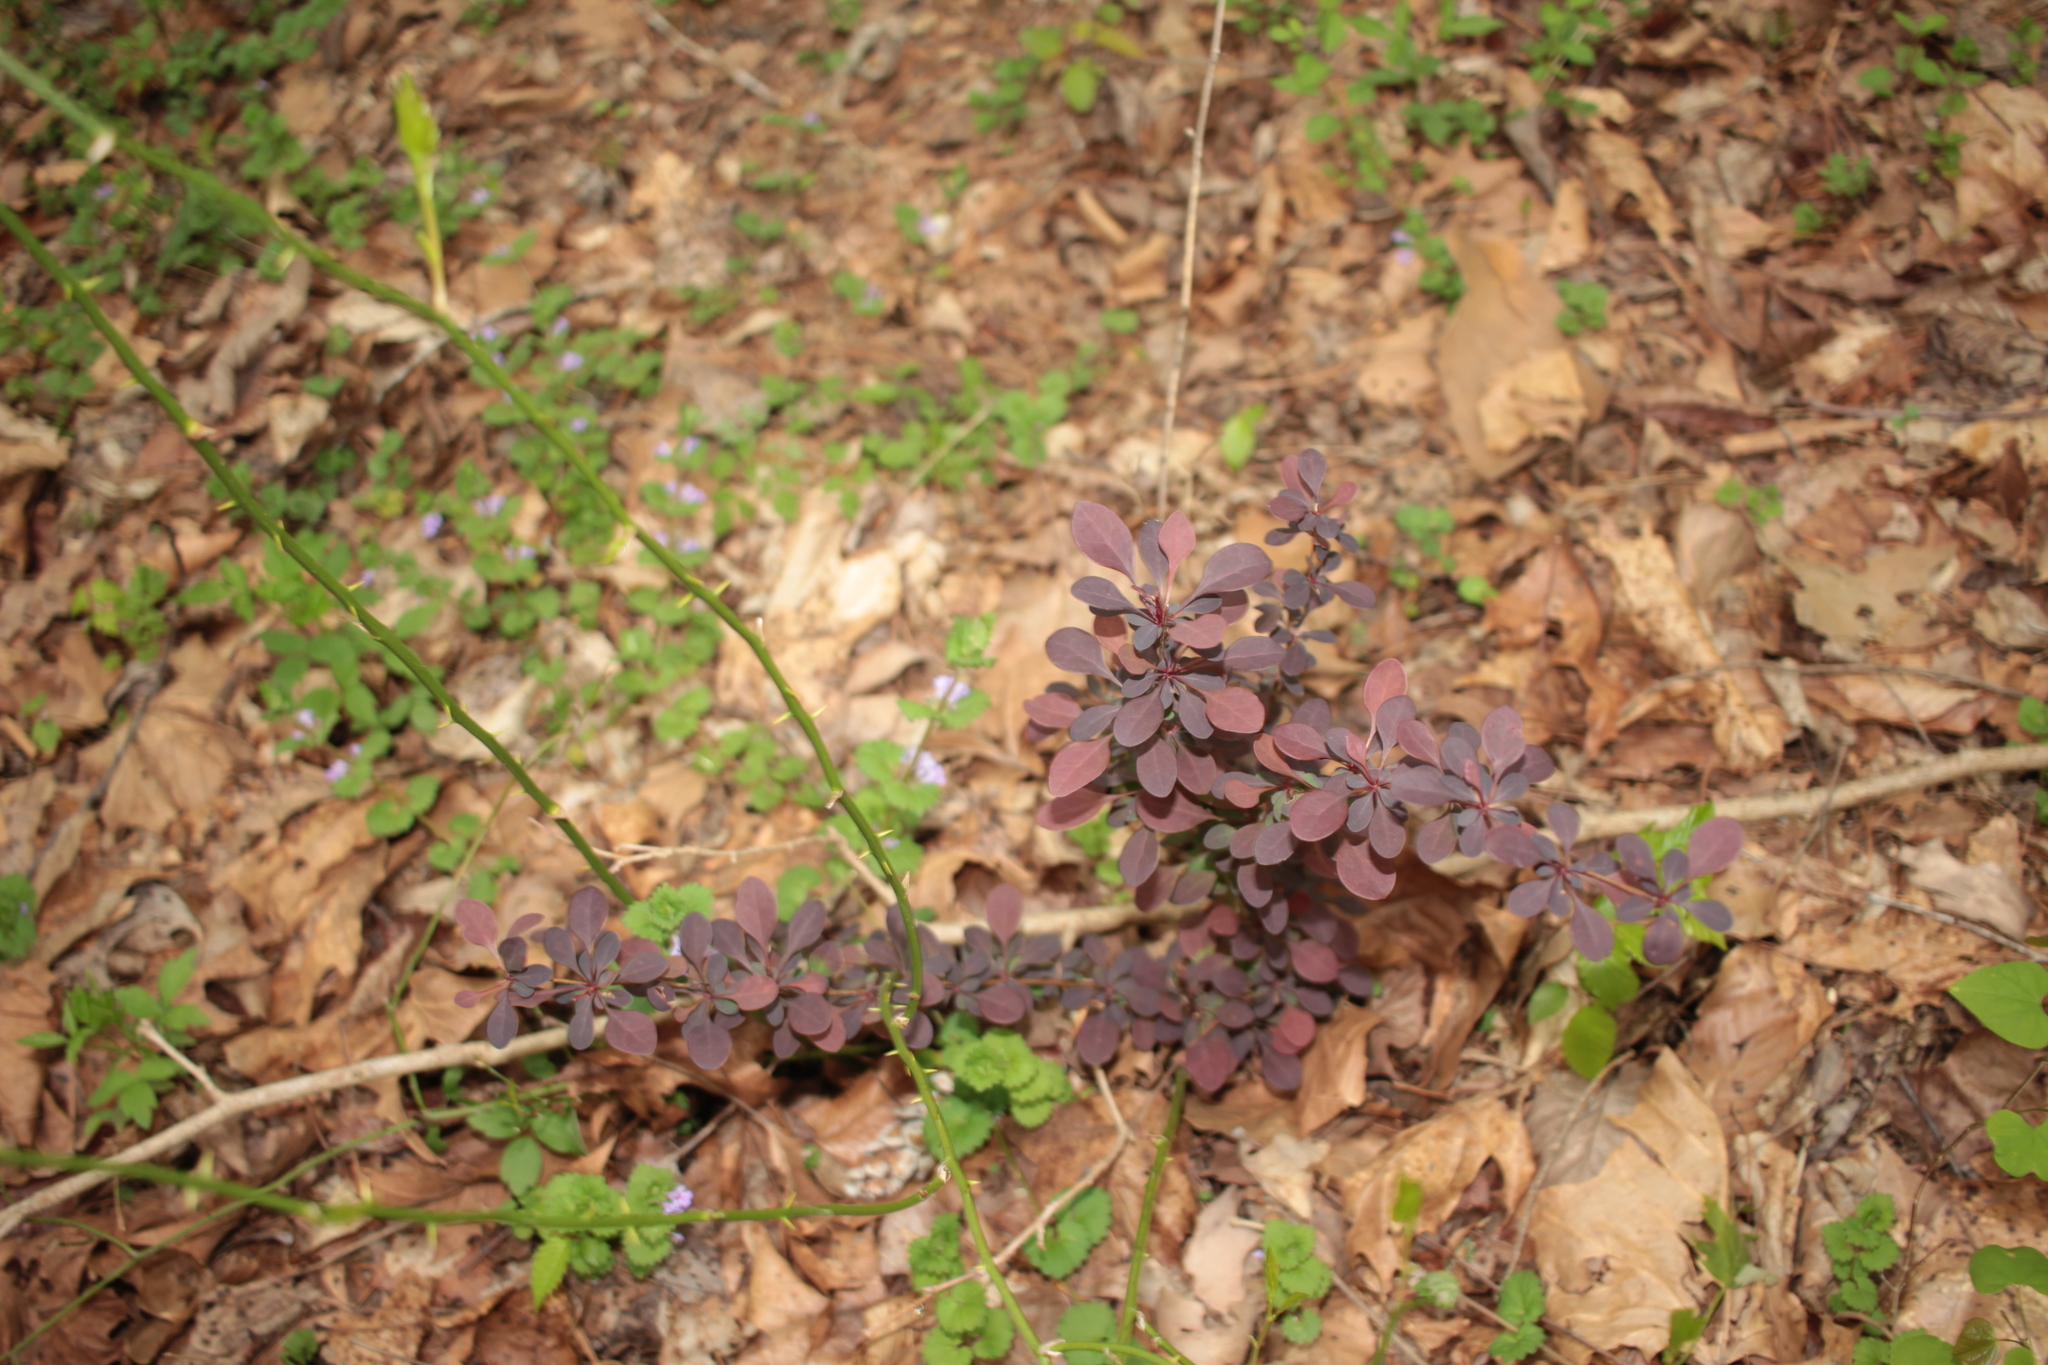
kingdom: Plantae
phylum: Tracheophyta
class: Magnoliopsida
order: Ranunculales
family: Berberidaceae
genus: Berberis
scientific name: Berberis thunbergii
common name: Japanese barberry
